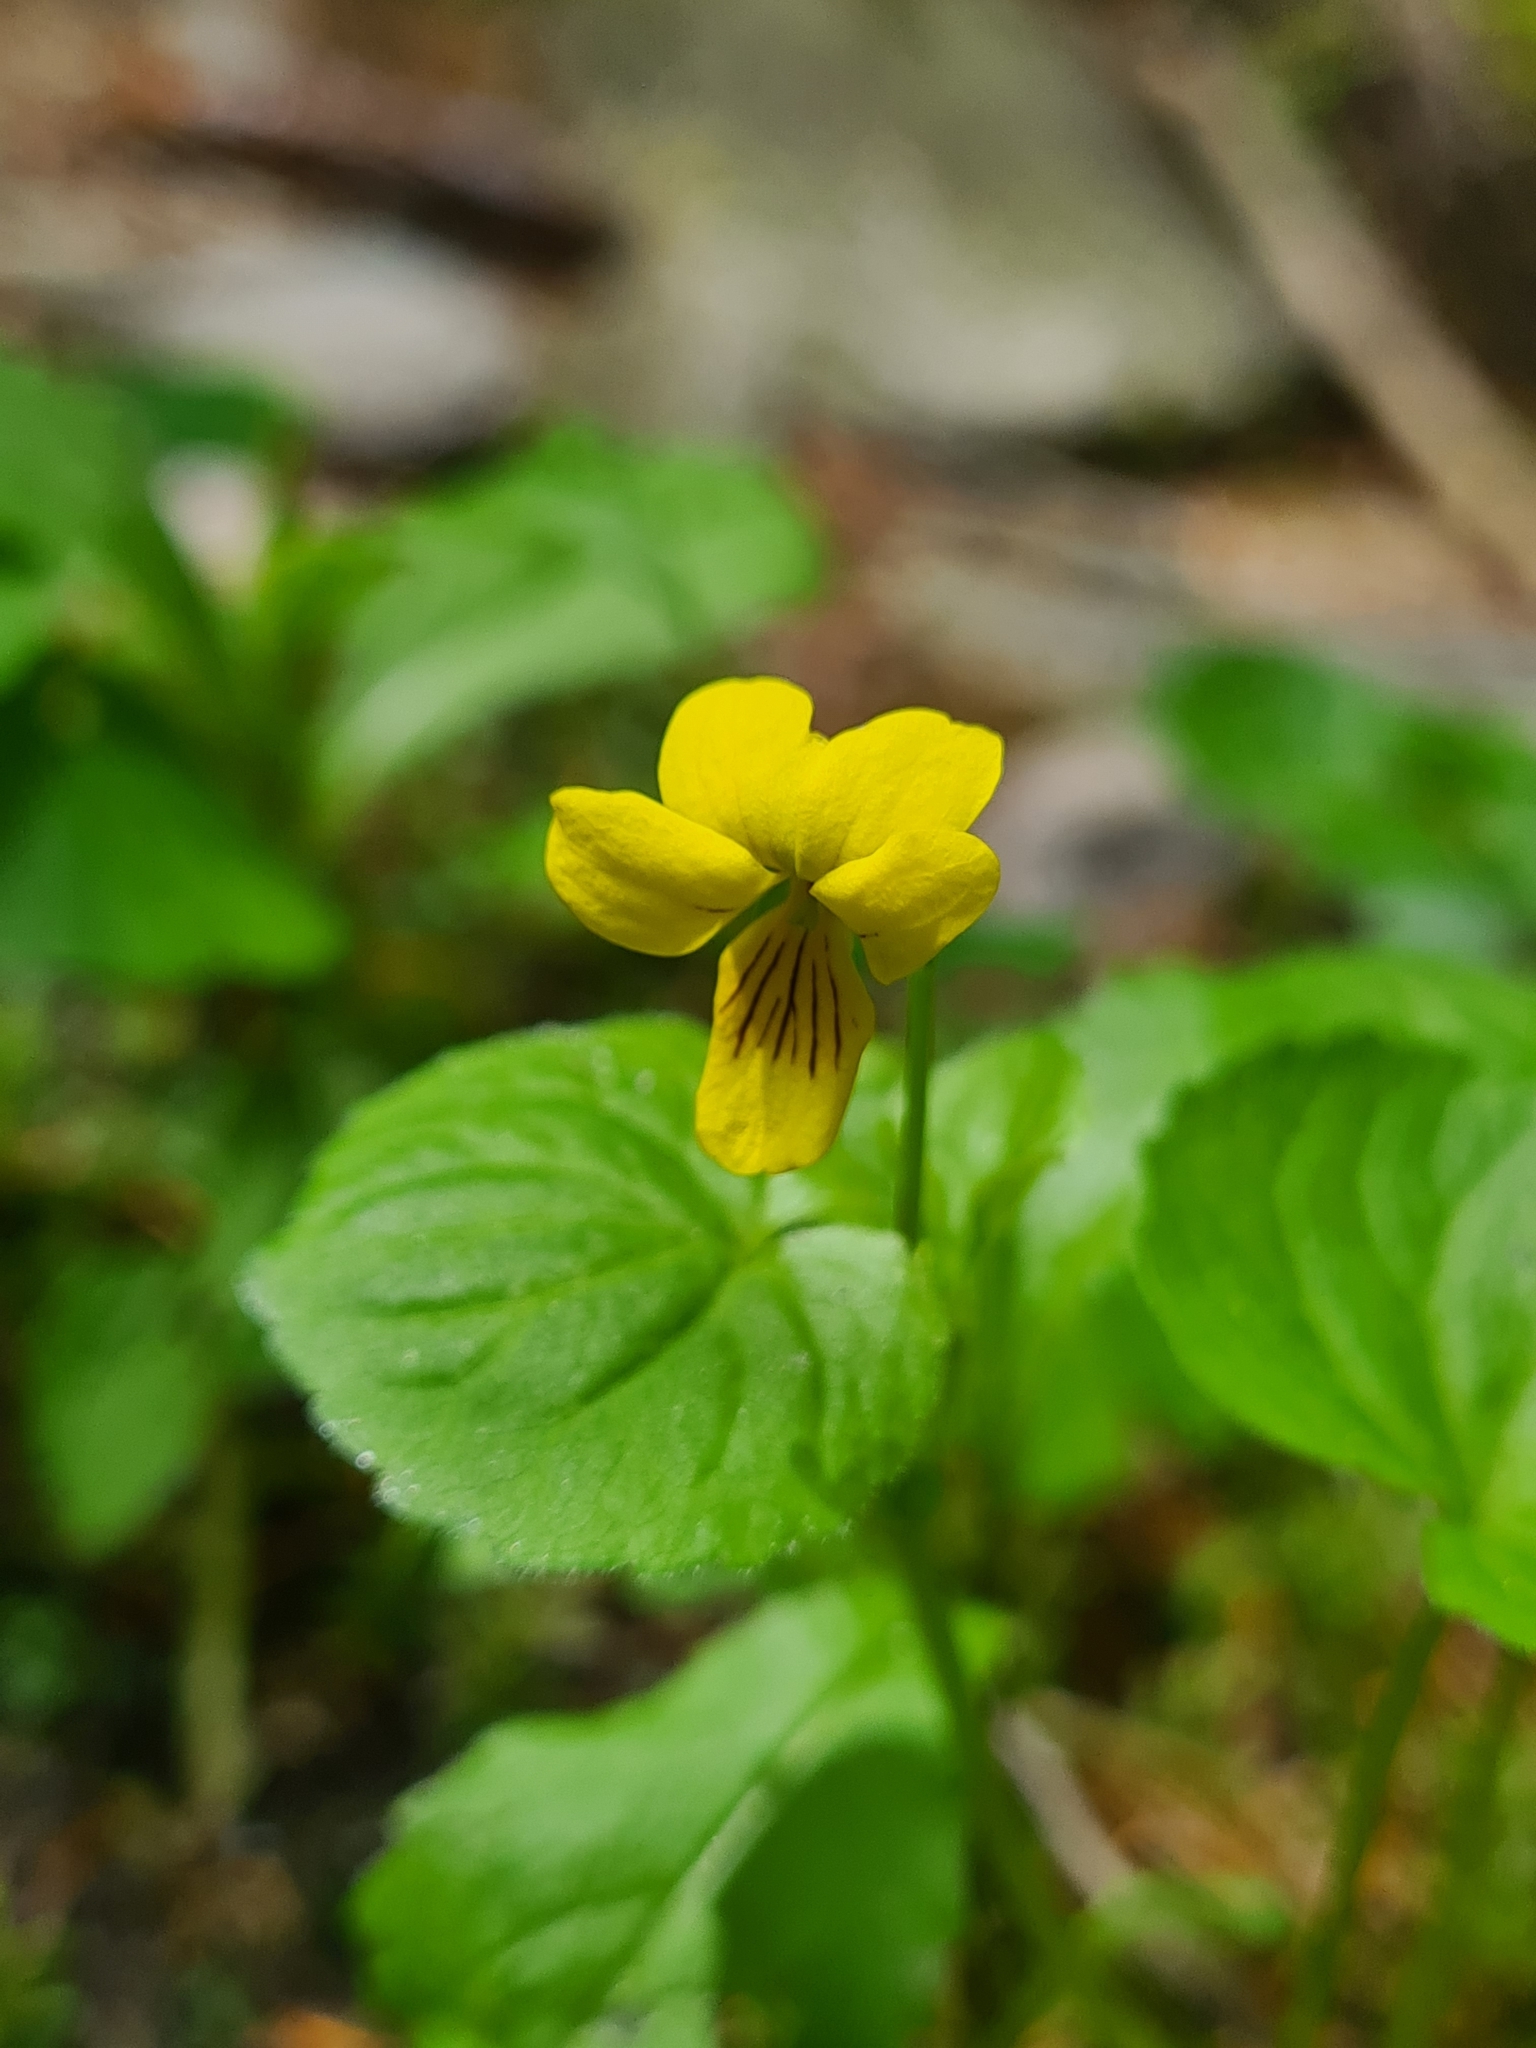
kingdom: Plantae
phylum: Tracheophyta
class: Magnoliopsida
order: Malpighiales
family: Violaceae
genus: Viola
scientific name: Viola biflora
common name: Alpine yellow violet
